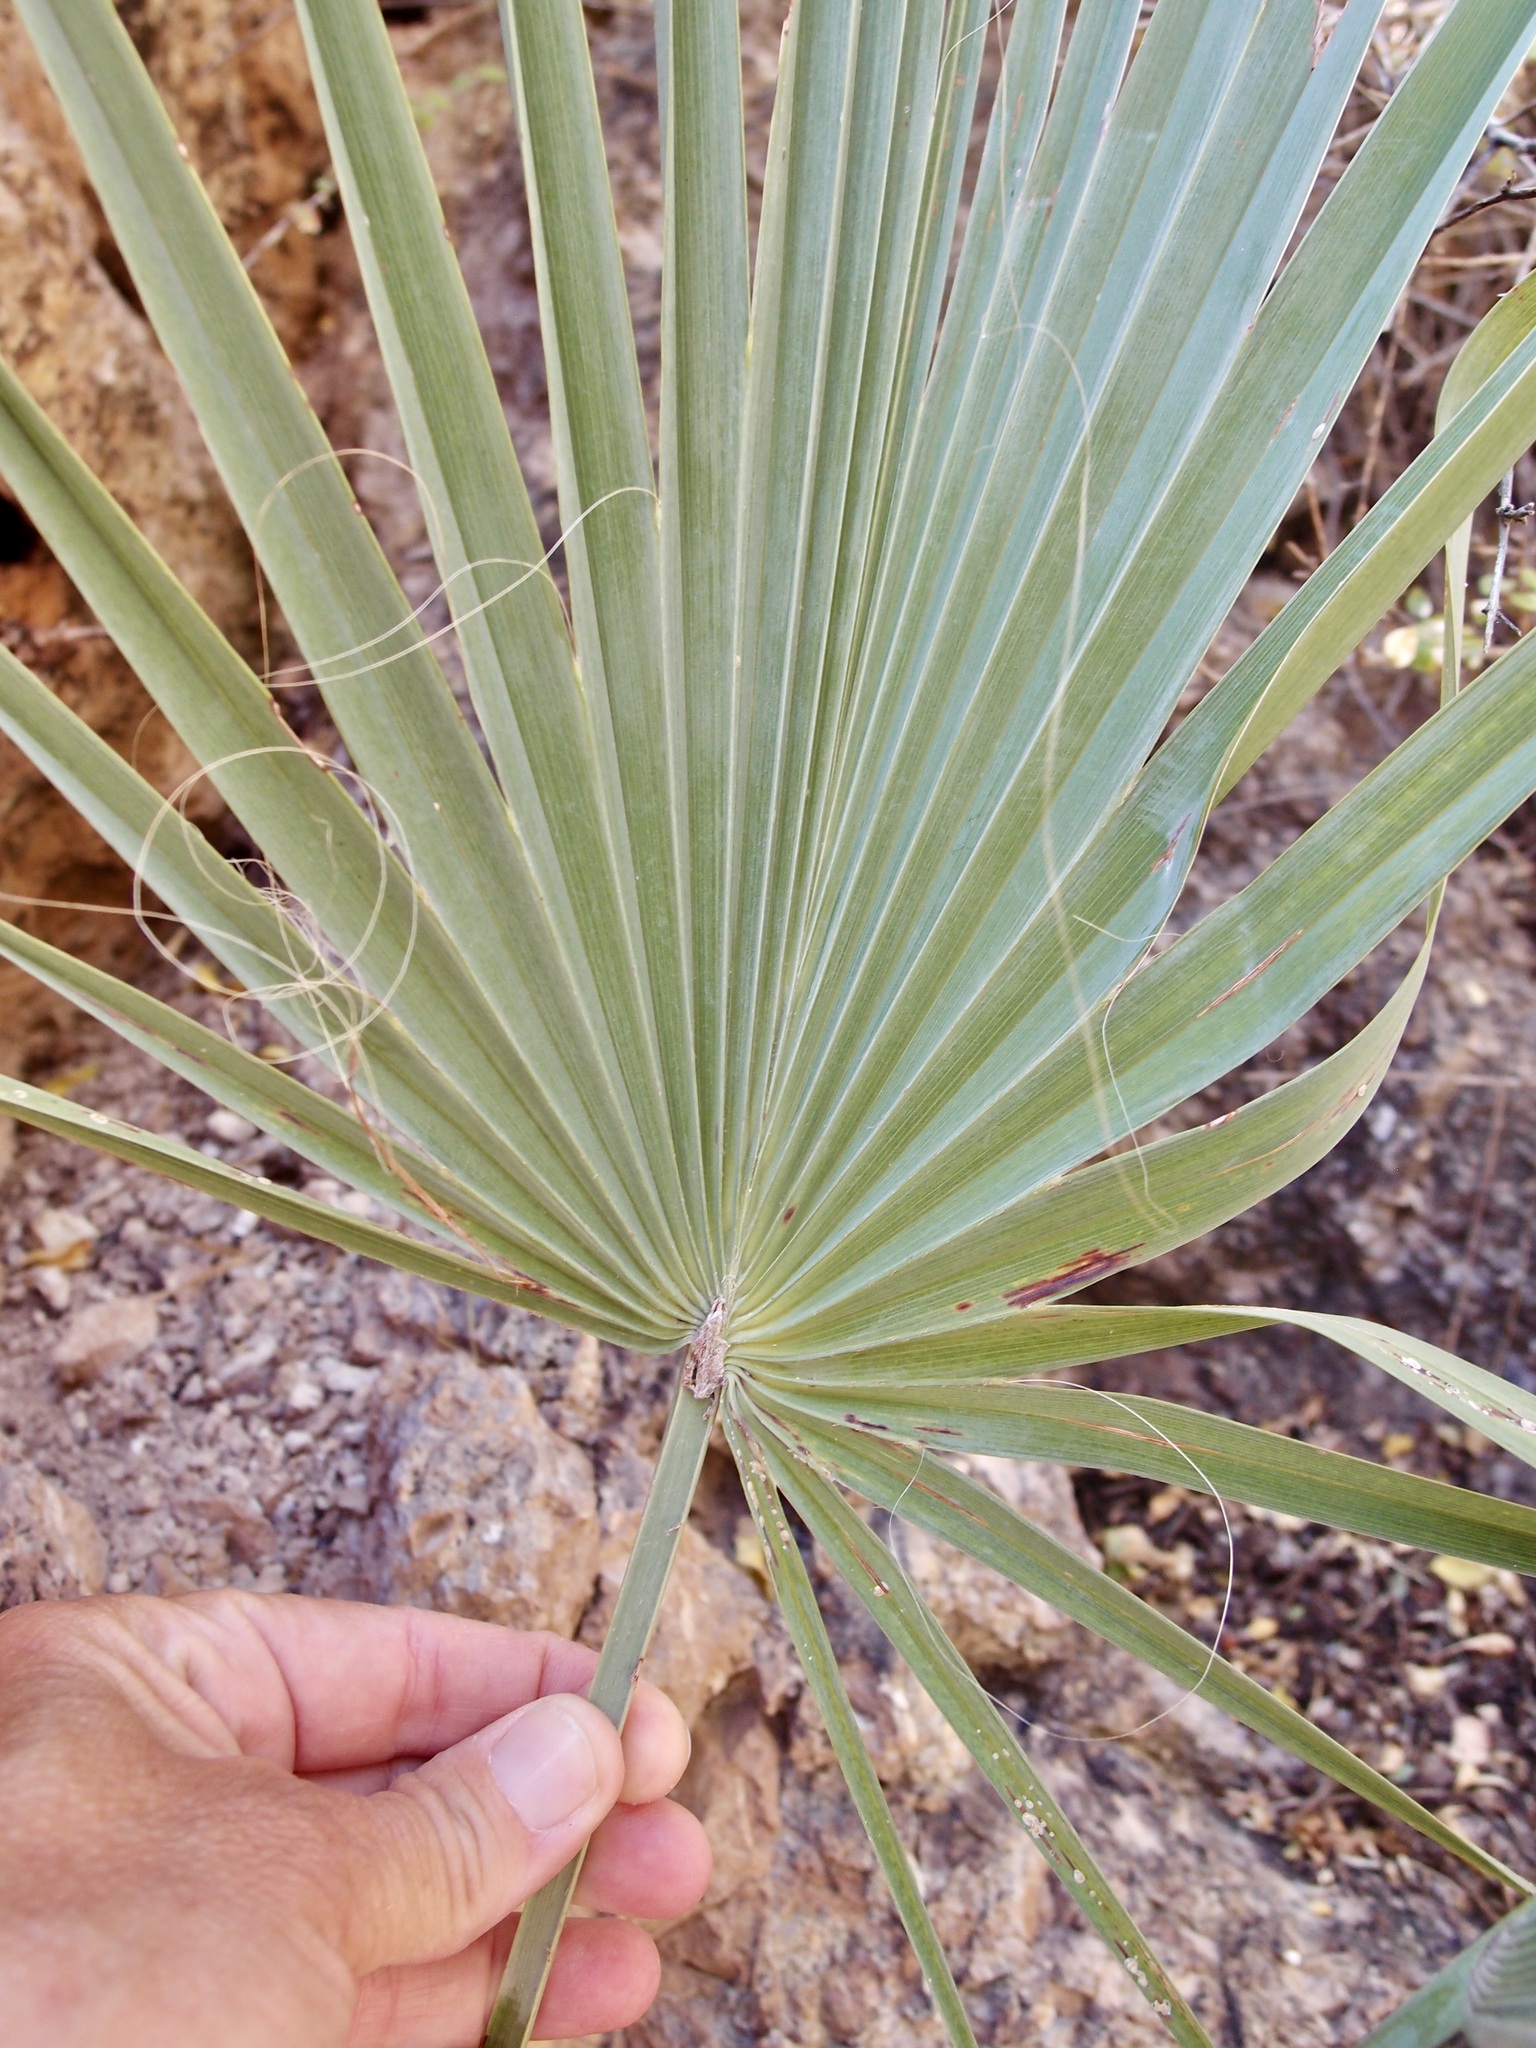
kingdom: Plantae
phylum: Tracheophyta
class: Liliopsida
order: Arecales
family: Arecaceae
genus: Brahea
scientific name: Brahea brandegeei
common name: San jose hesper palm
